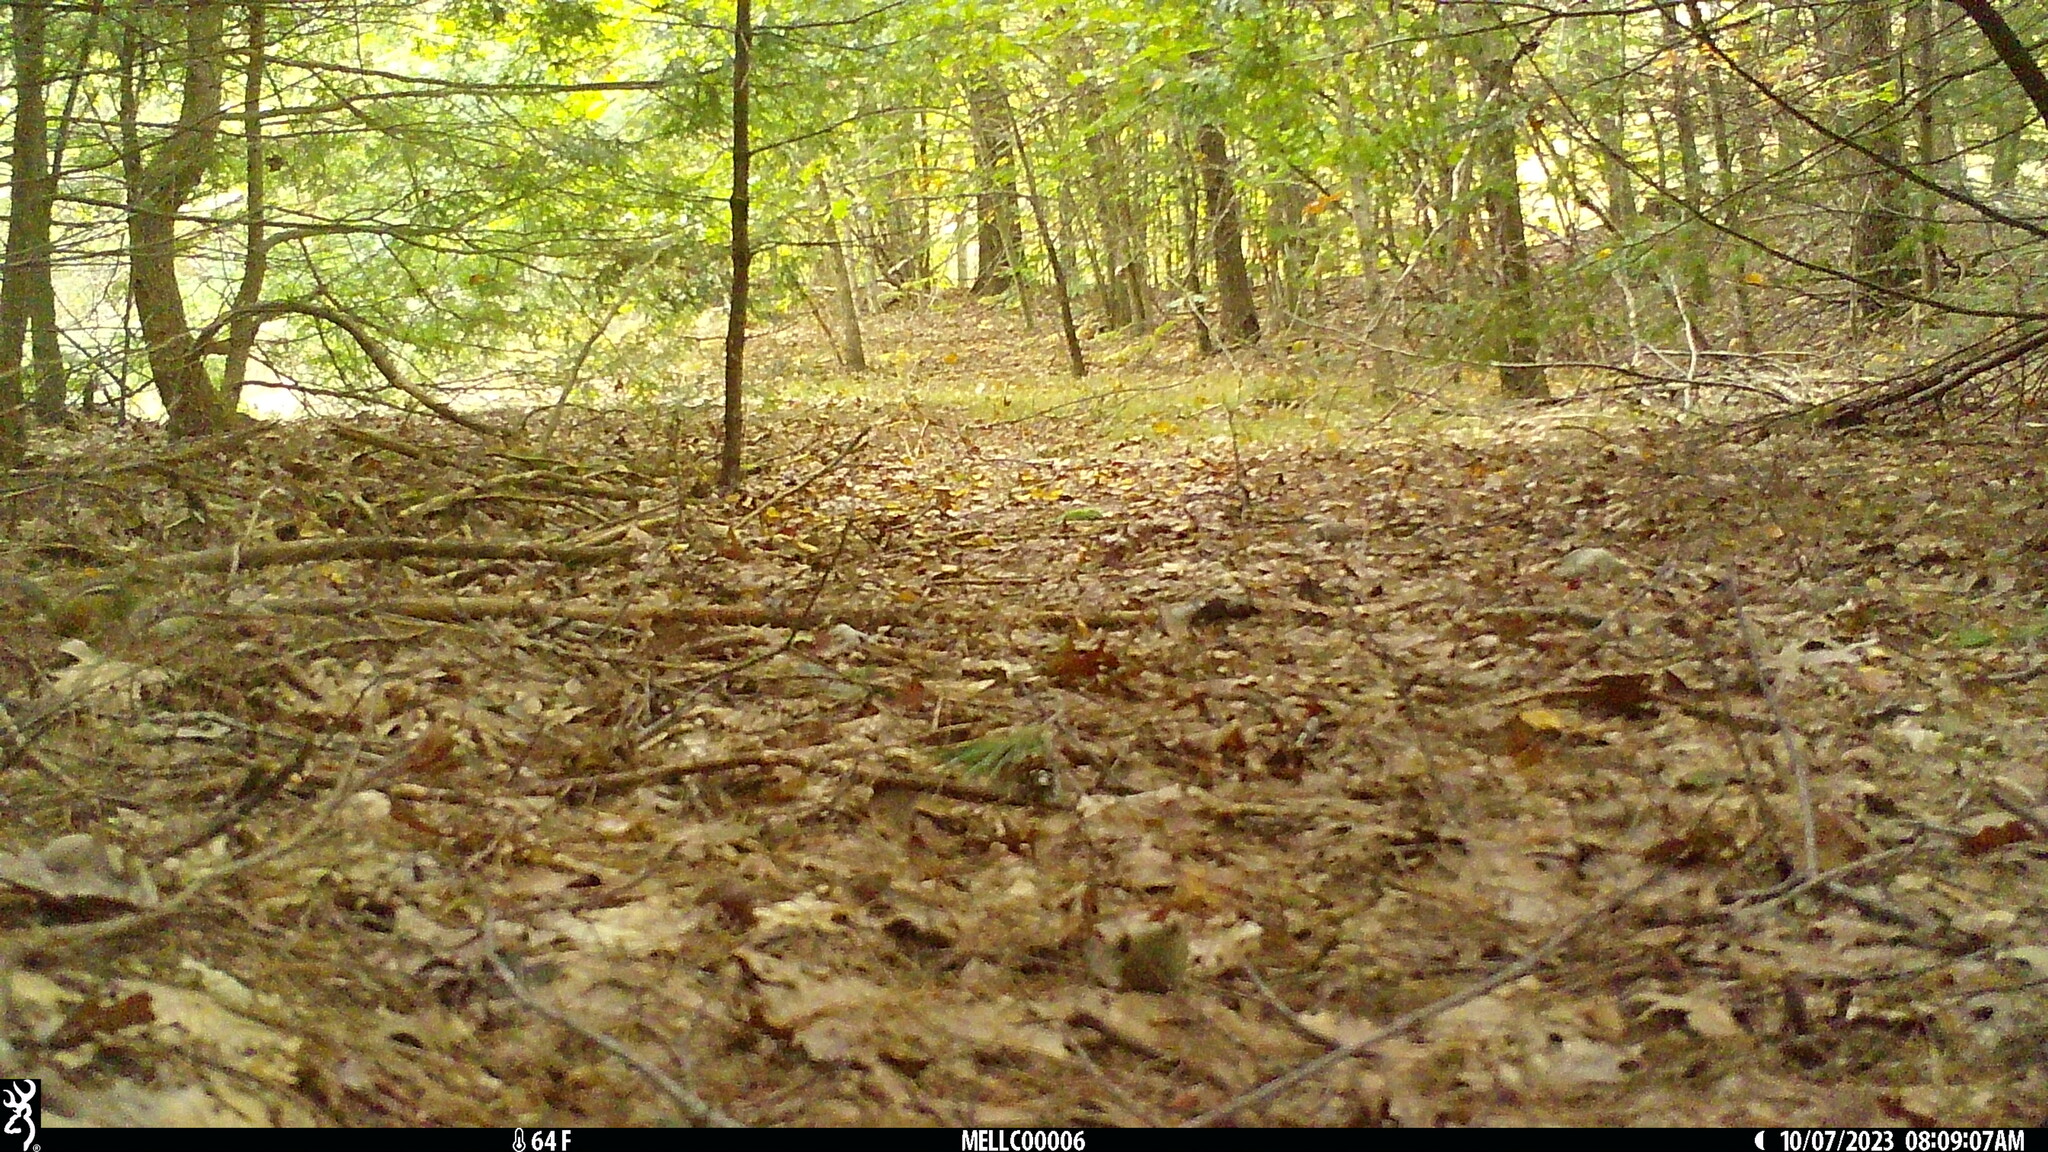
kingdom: Animalia
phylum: Chordata
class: Mammalia
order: Rodentia
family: Sciuridae
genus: Tamias
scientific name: Tamias striatus
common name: Eastern chipmunk
